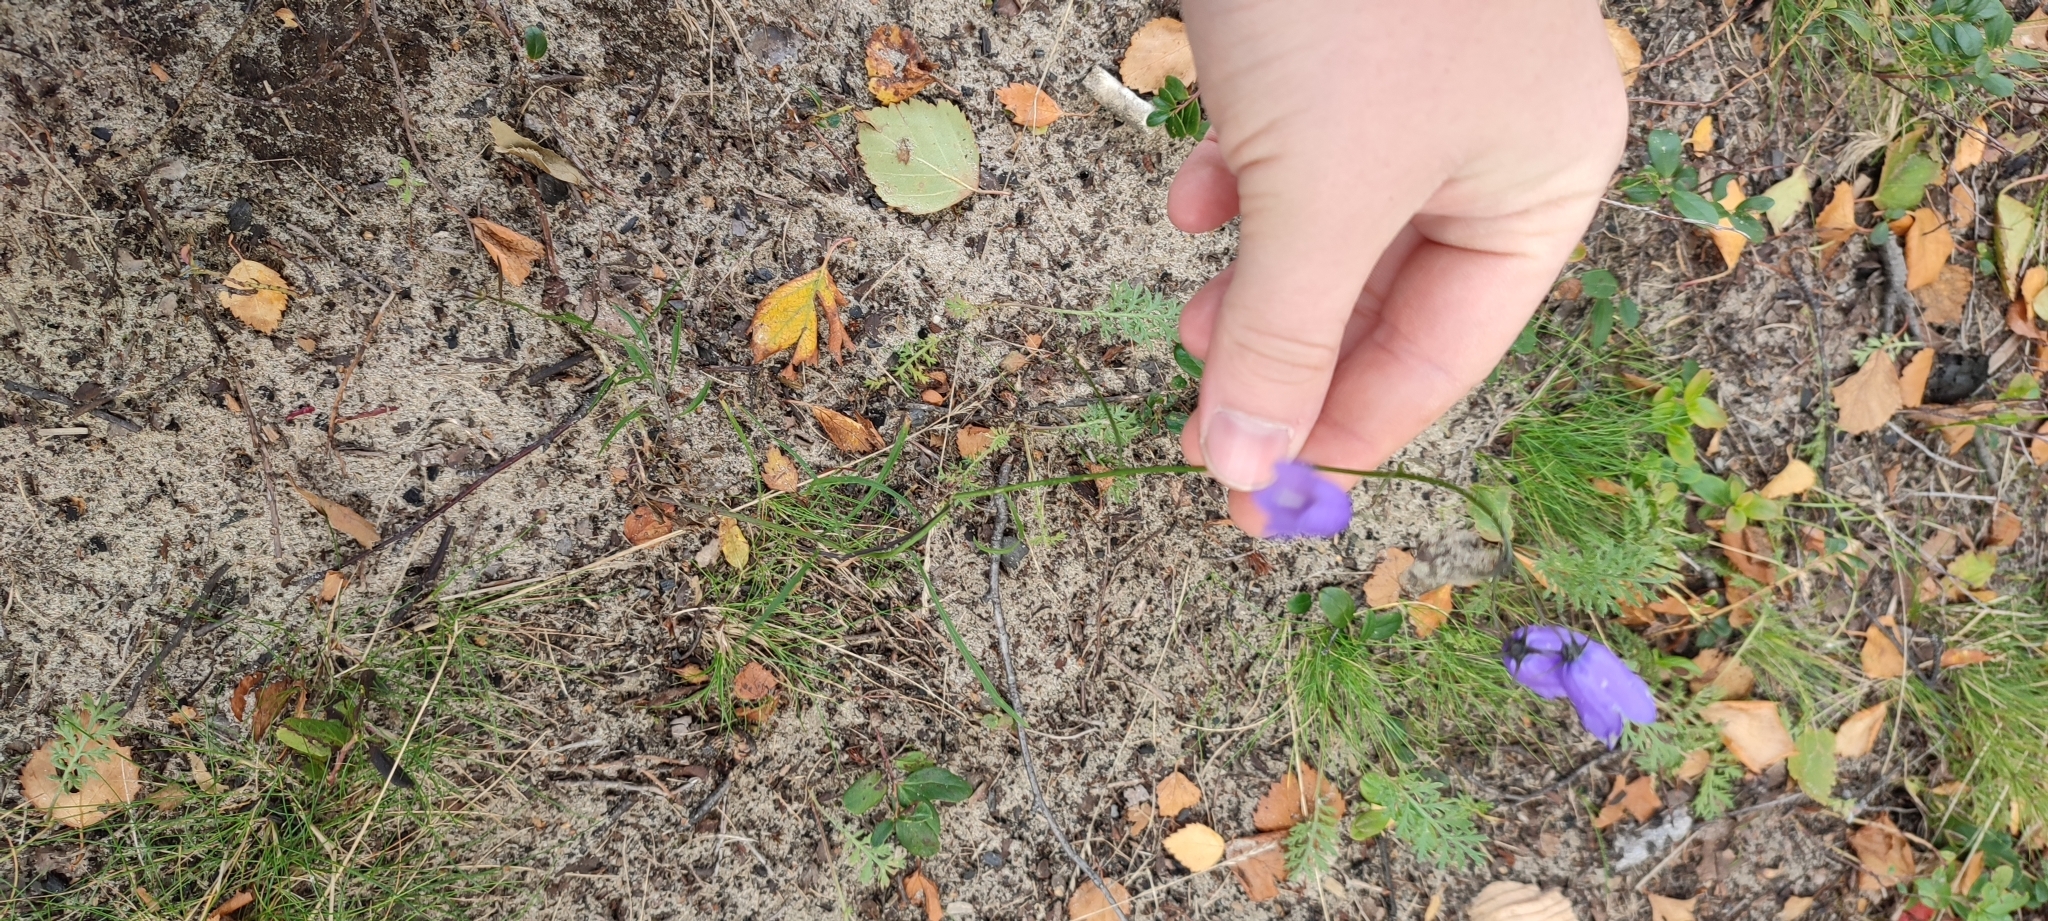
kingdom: Plantae
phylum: Tracheophyta
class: Magnoliopsida
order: Asterales
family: Campanulaceae
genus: Campanula
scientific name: Campanula rotundifolia
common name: Harebell
